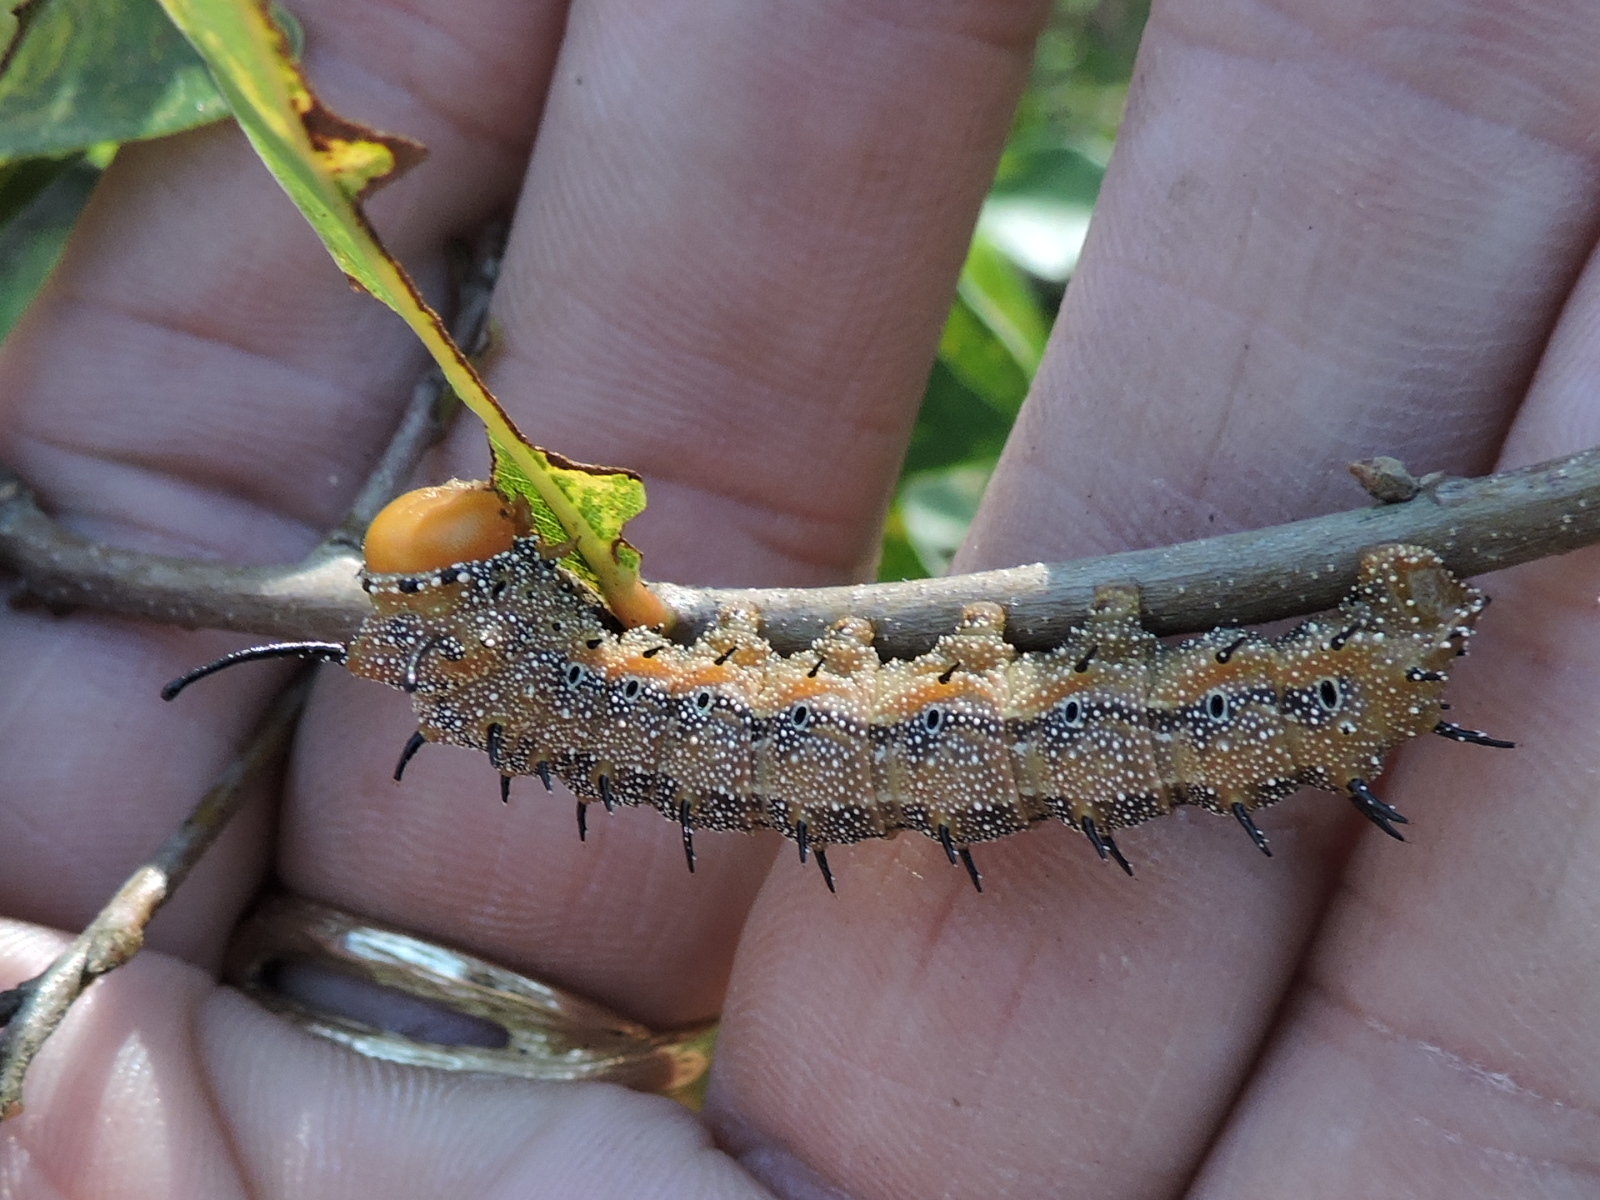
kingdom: Animalia
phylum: Arthropoda
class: Insecta
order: Lepidoptera
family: Saturniidae
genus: Anisota
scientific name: Anisota stigma
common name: Spiny oakworm moth
